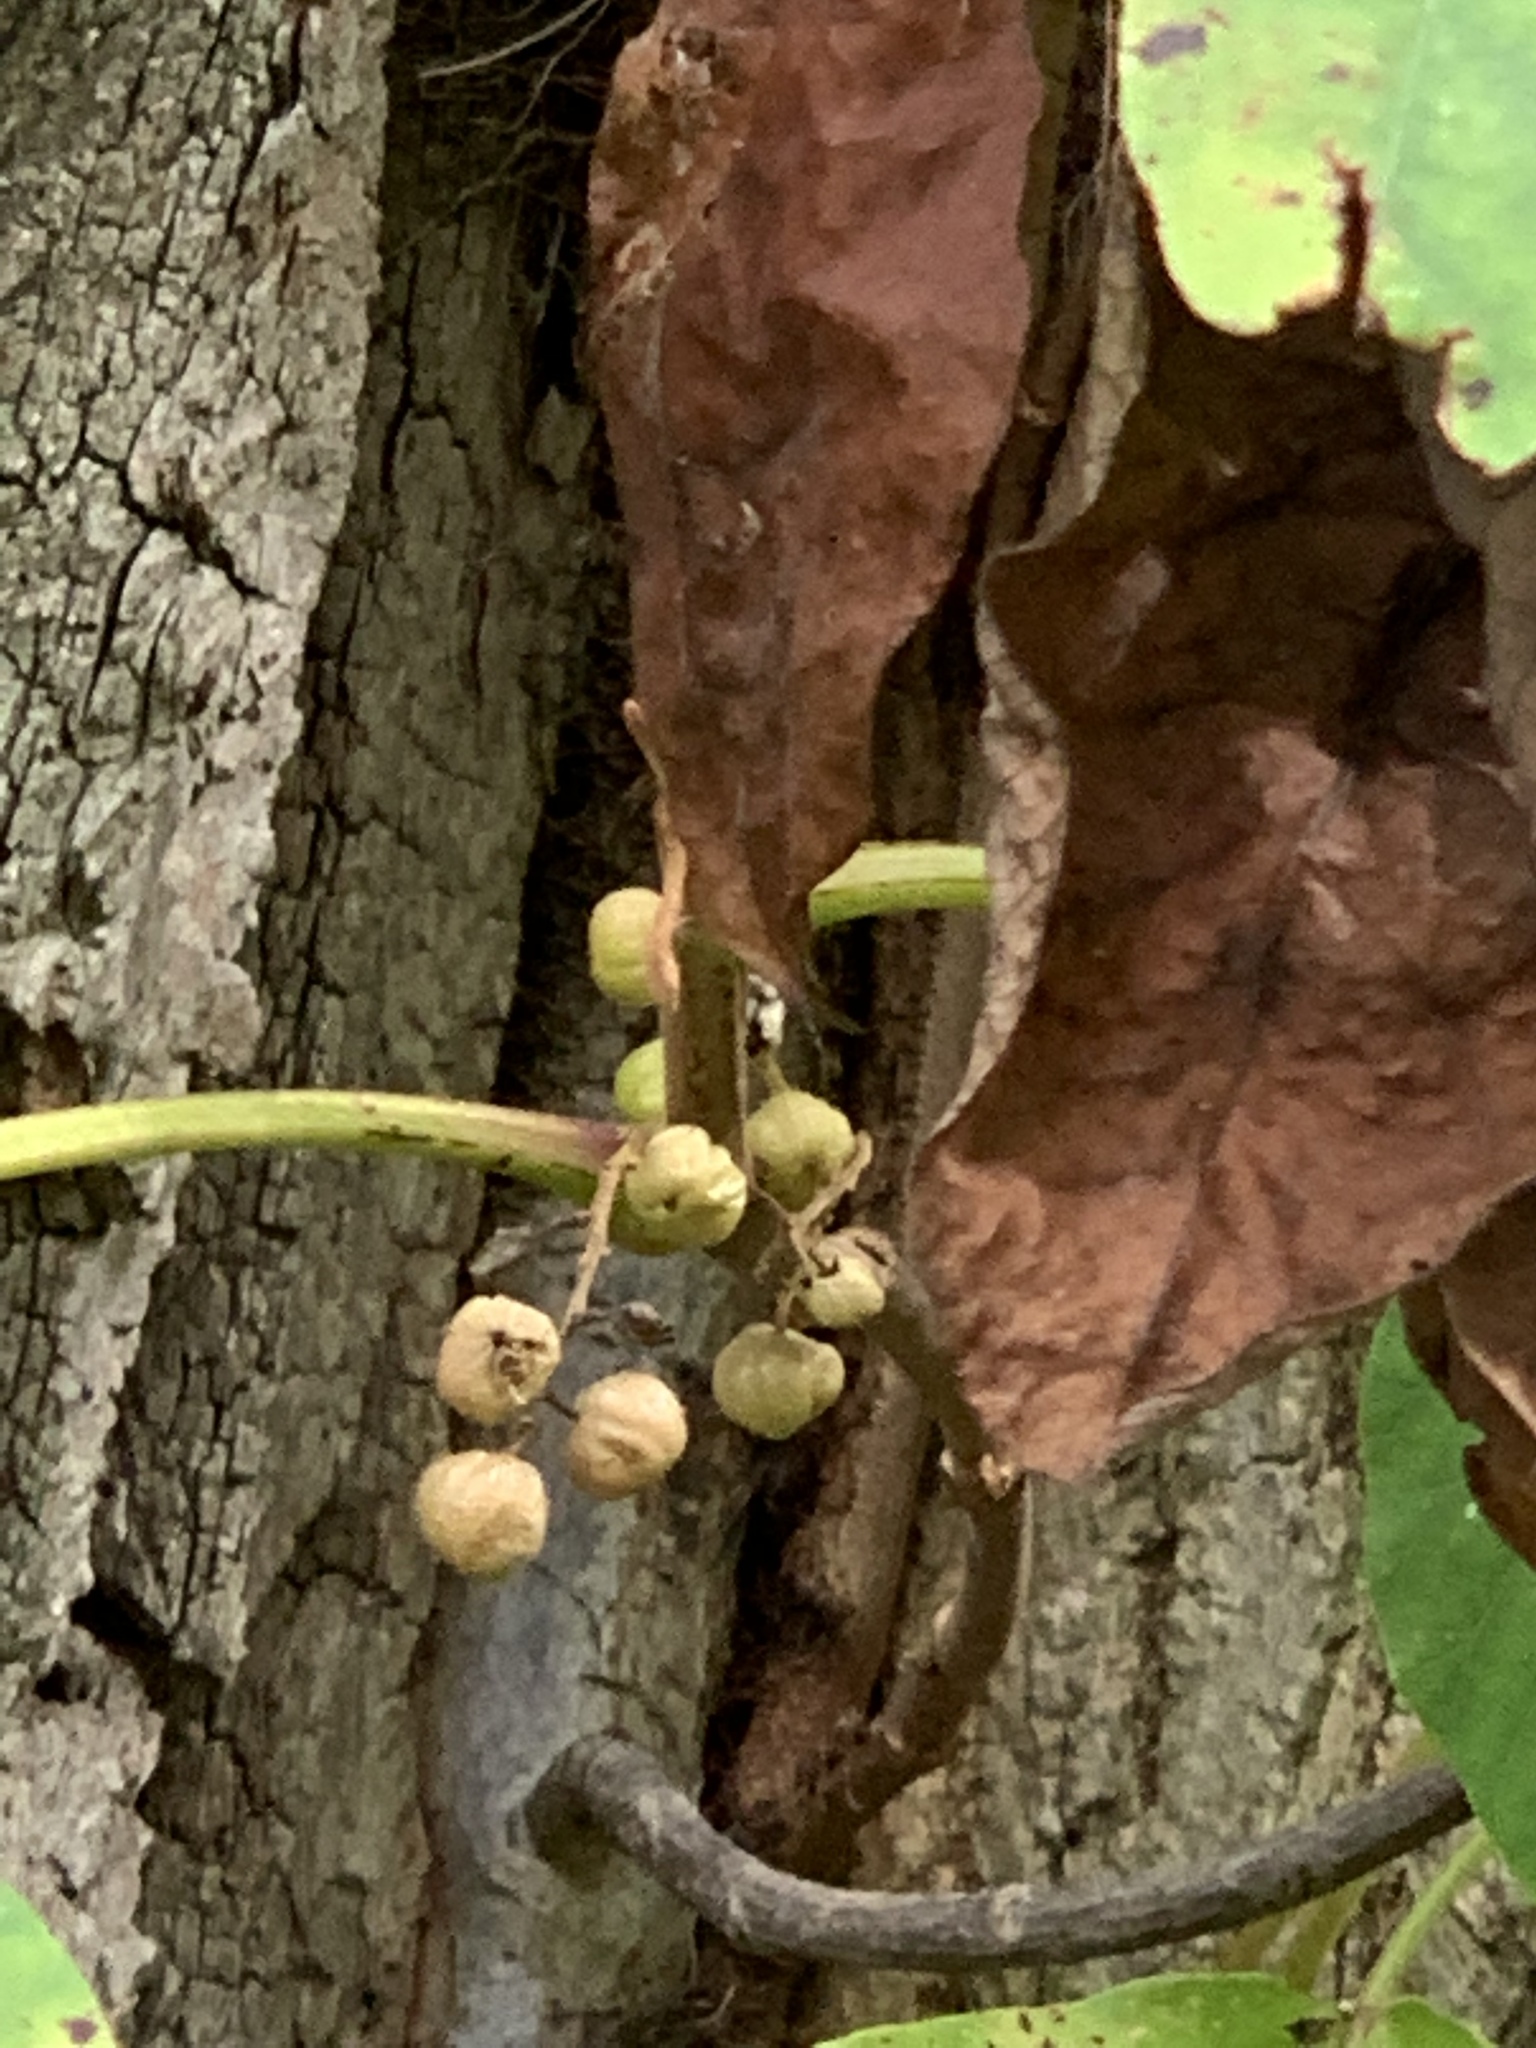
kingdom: Plantae
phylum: Tracheophyta
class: Magnoliopsida
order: Sapindales
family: Anacardiaceae
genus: Toxicodendron
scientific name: Toxicodendron radicans
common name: Poison ivy
